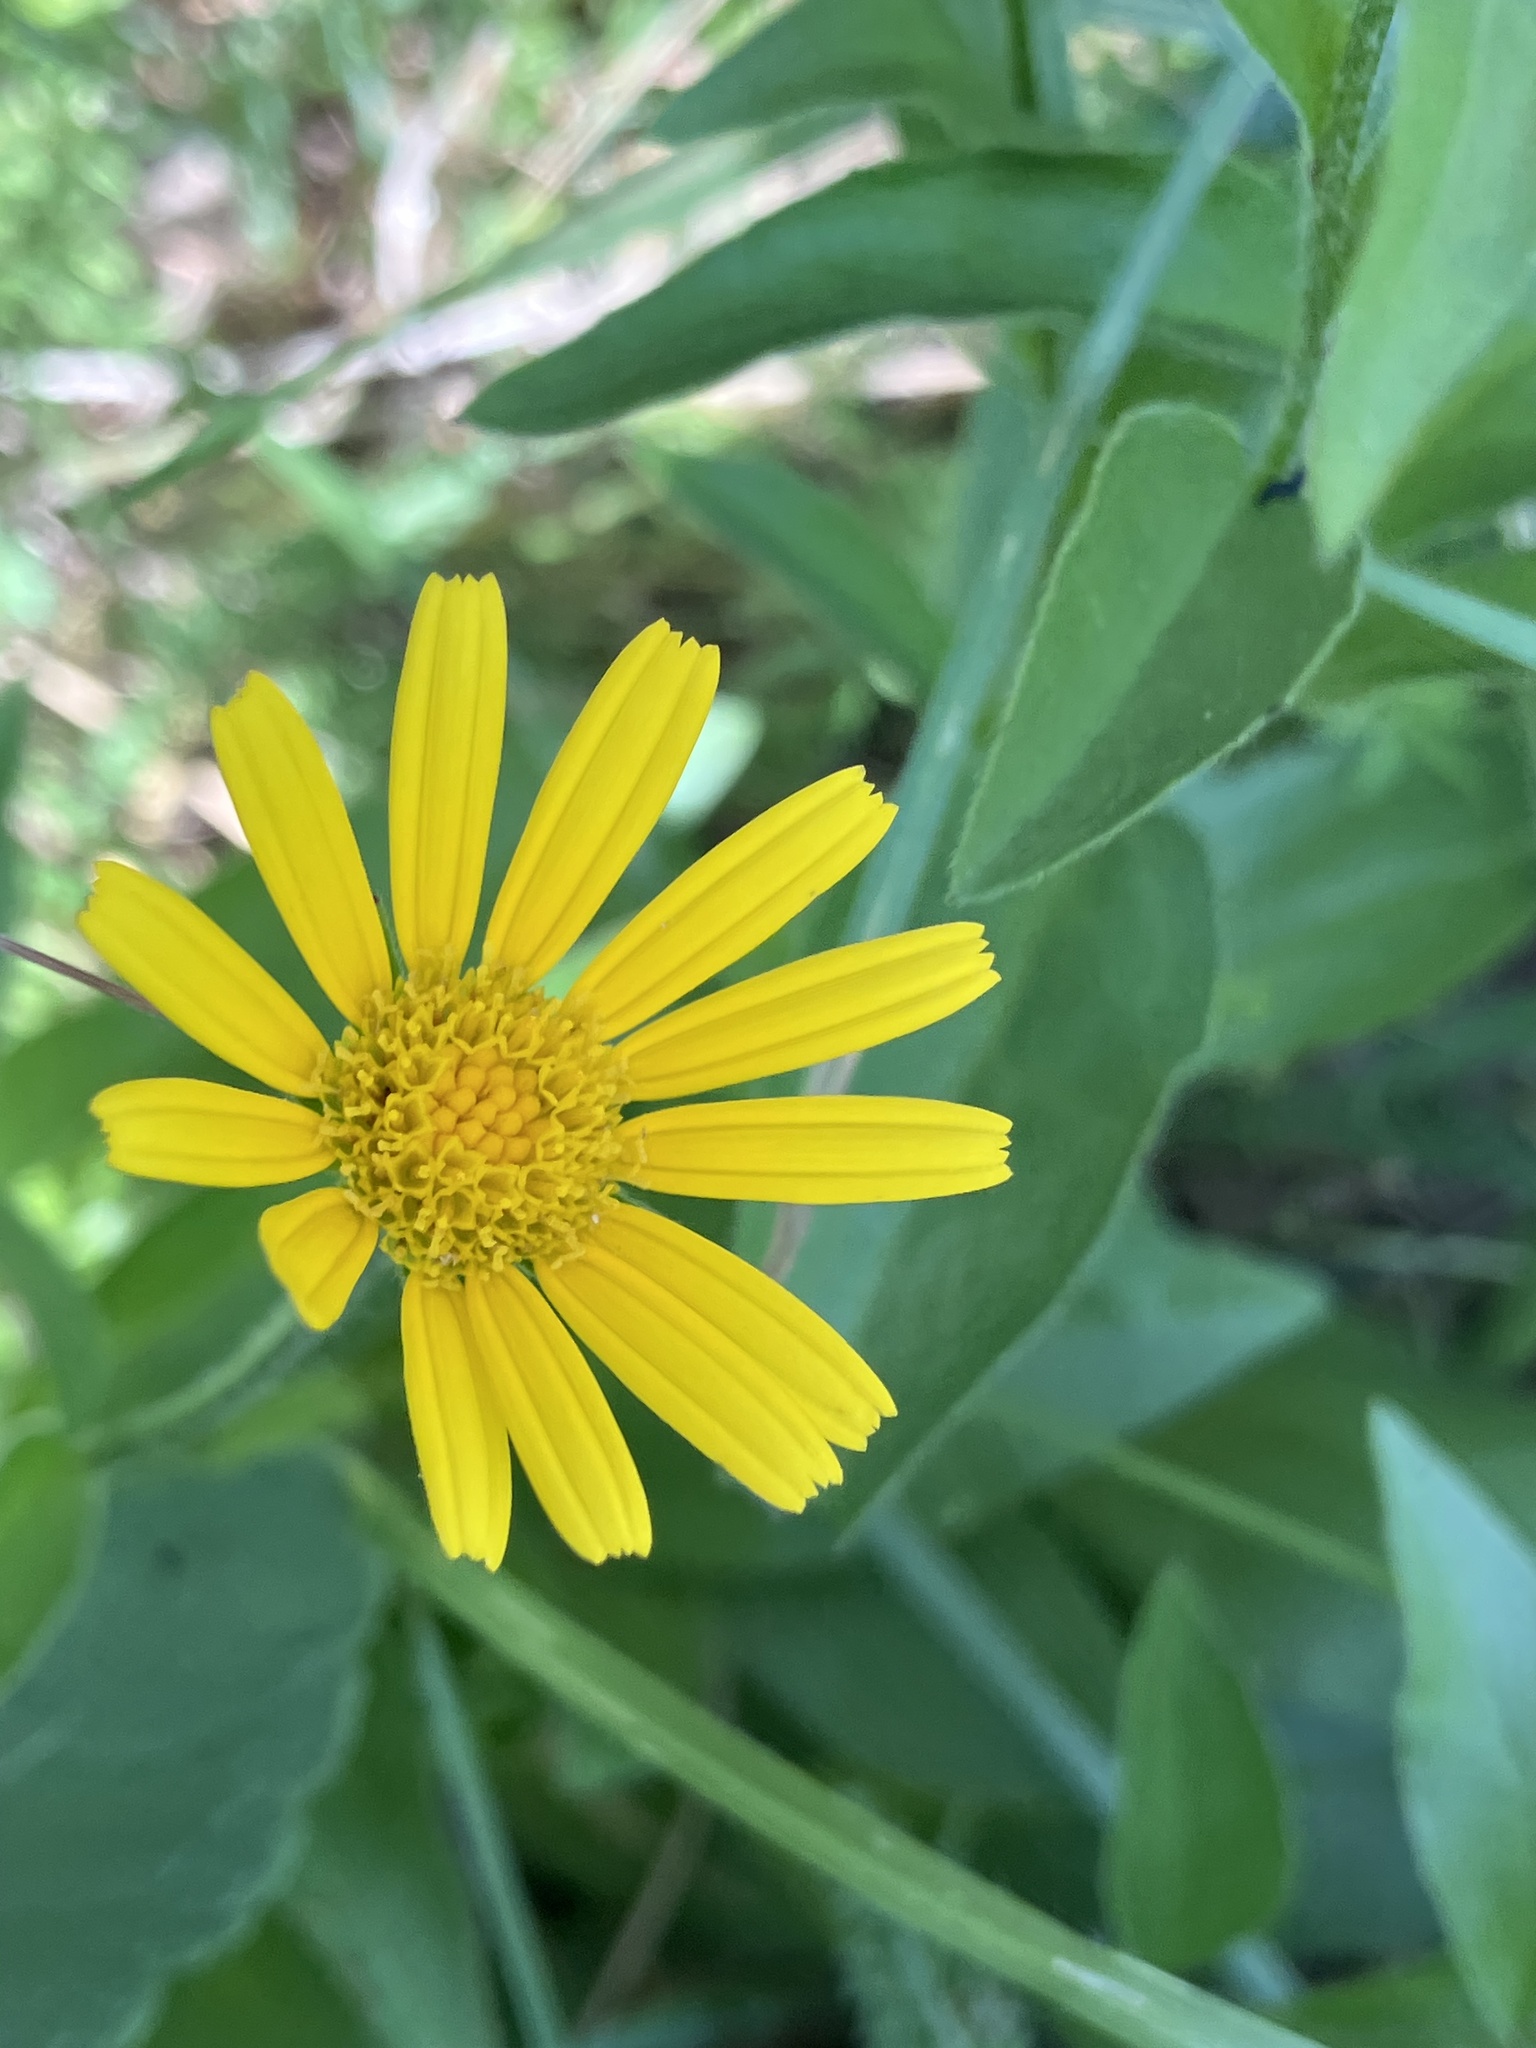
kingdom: Plantae
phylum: Tracheophyta
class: Magnoliopsida
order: Asterales
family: Asteraceae
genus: Buphthalmum
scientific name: Buphthalmum salicifolium
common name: Willow-leaved yellow-oxeye
